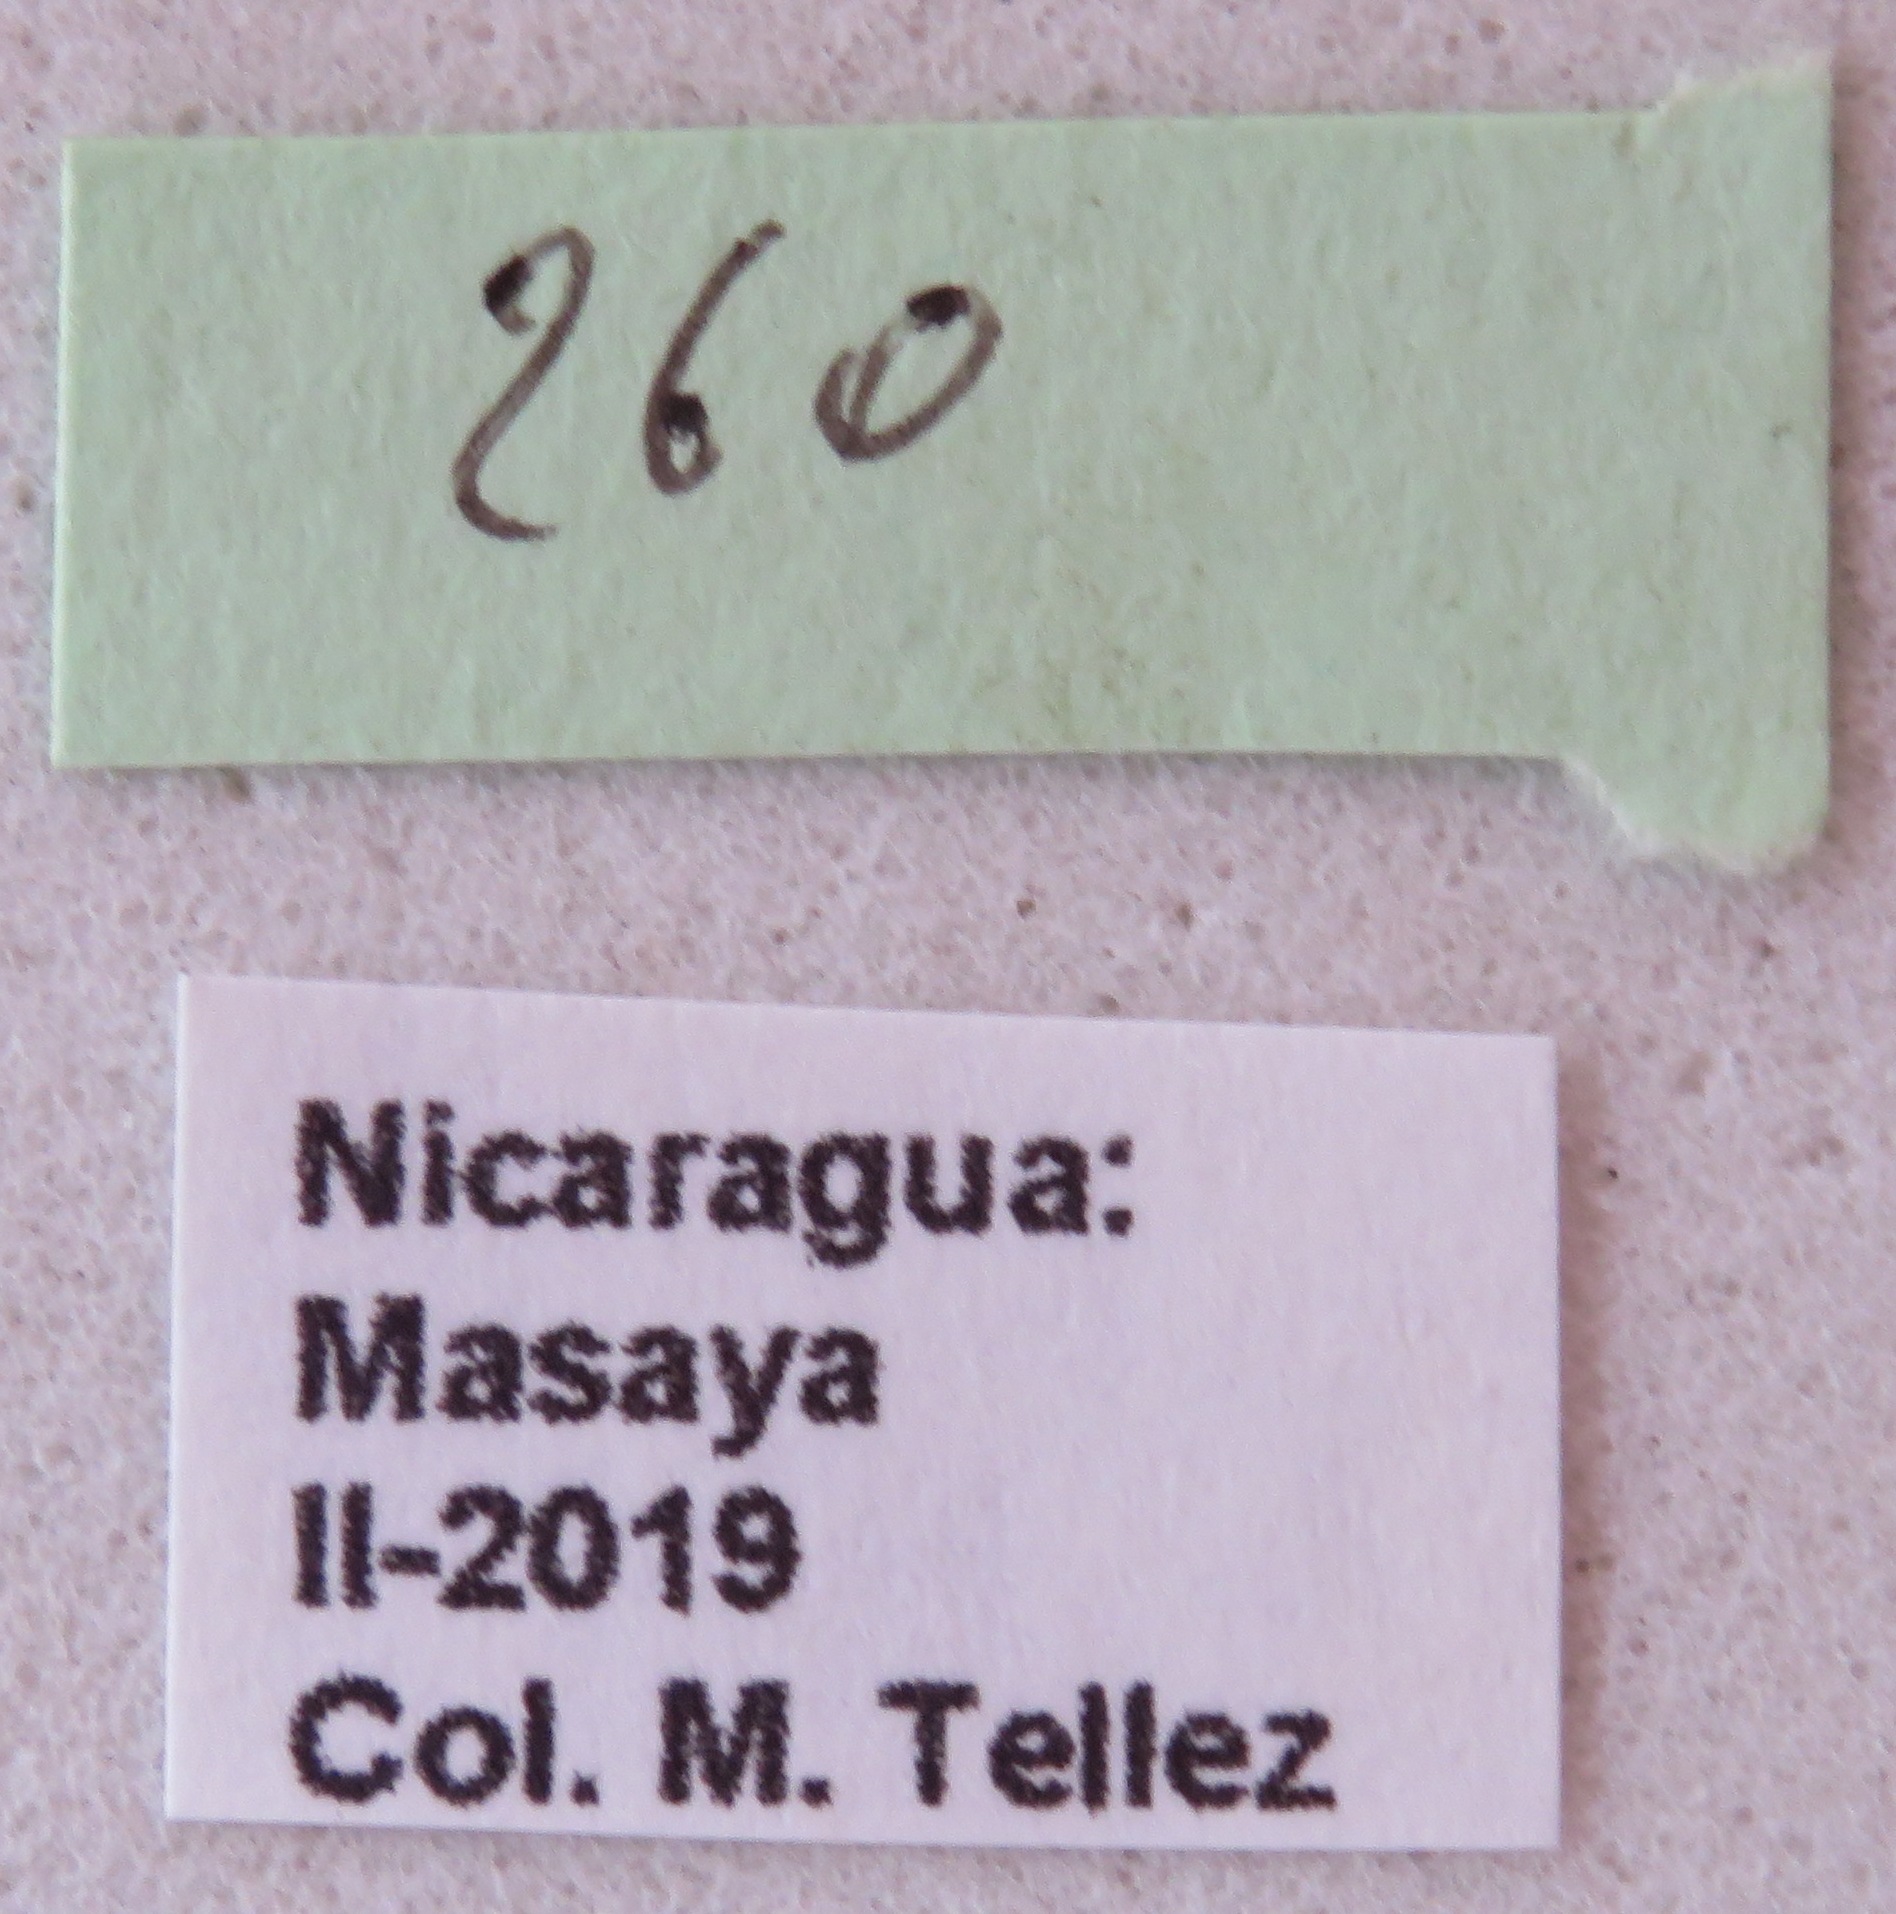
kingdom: Animalia
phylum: Arthropoda
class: Insecta
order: Hemiptera
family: Coreidae
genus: Pachylis
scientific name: Pachylis nervosus
